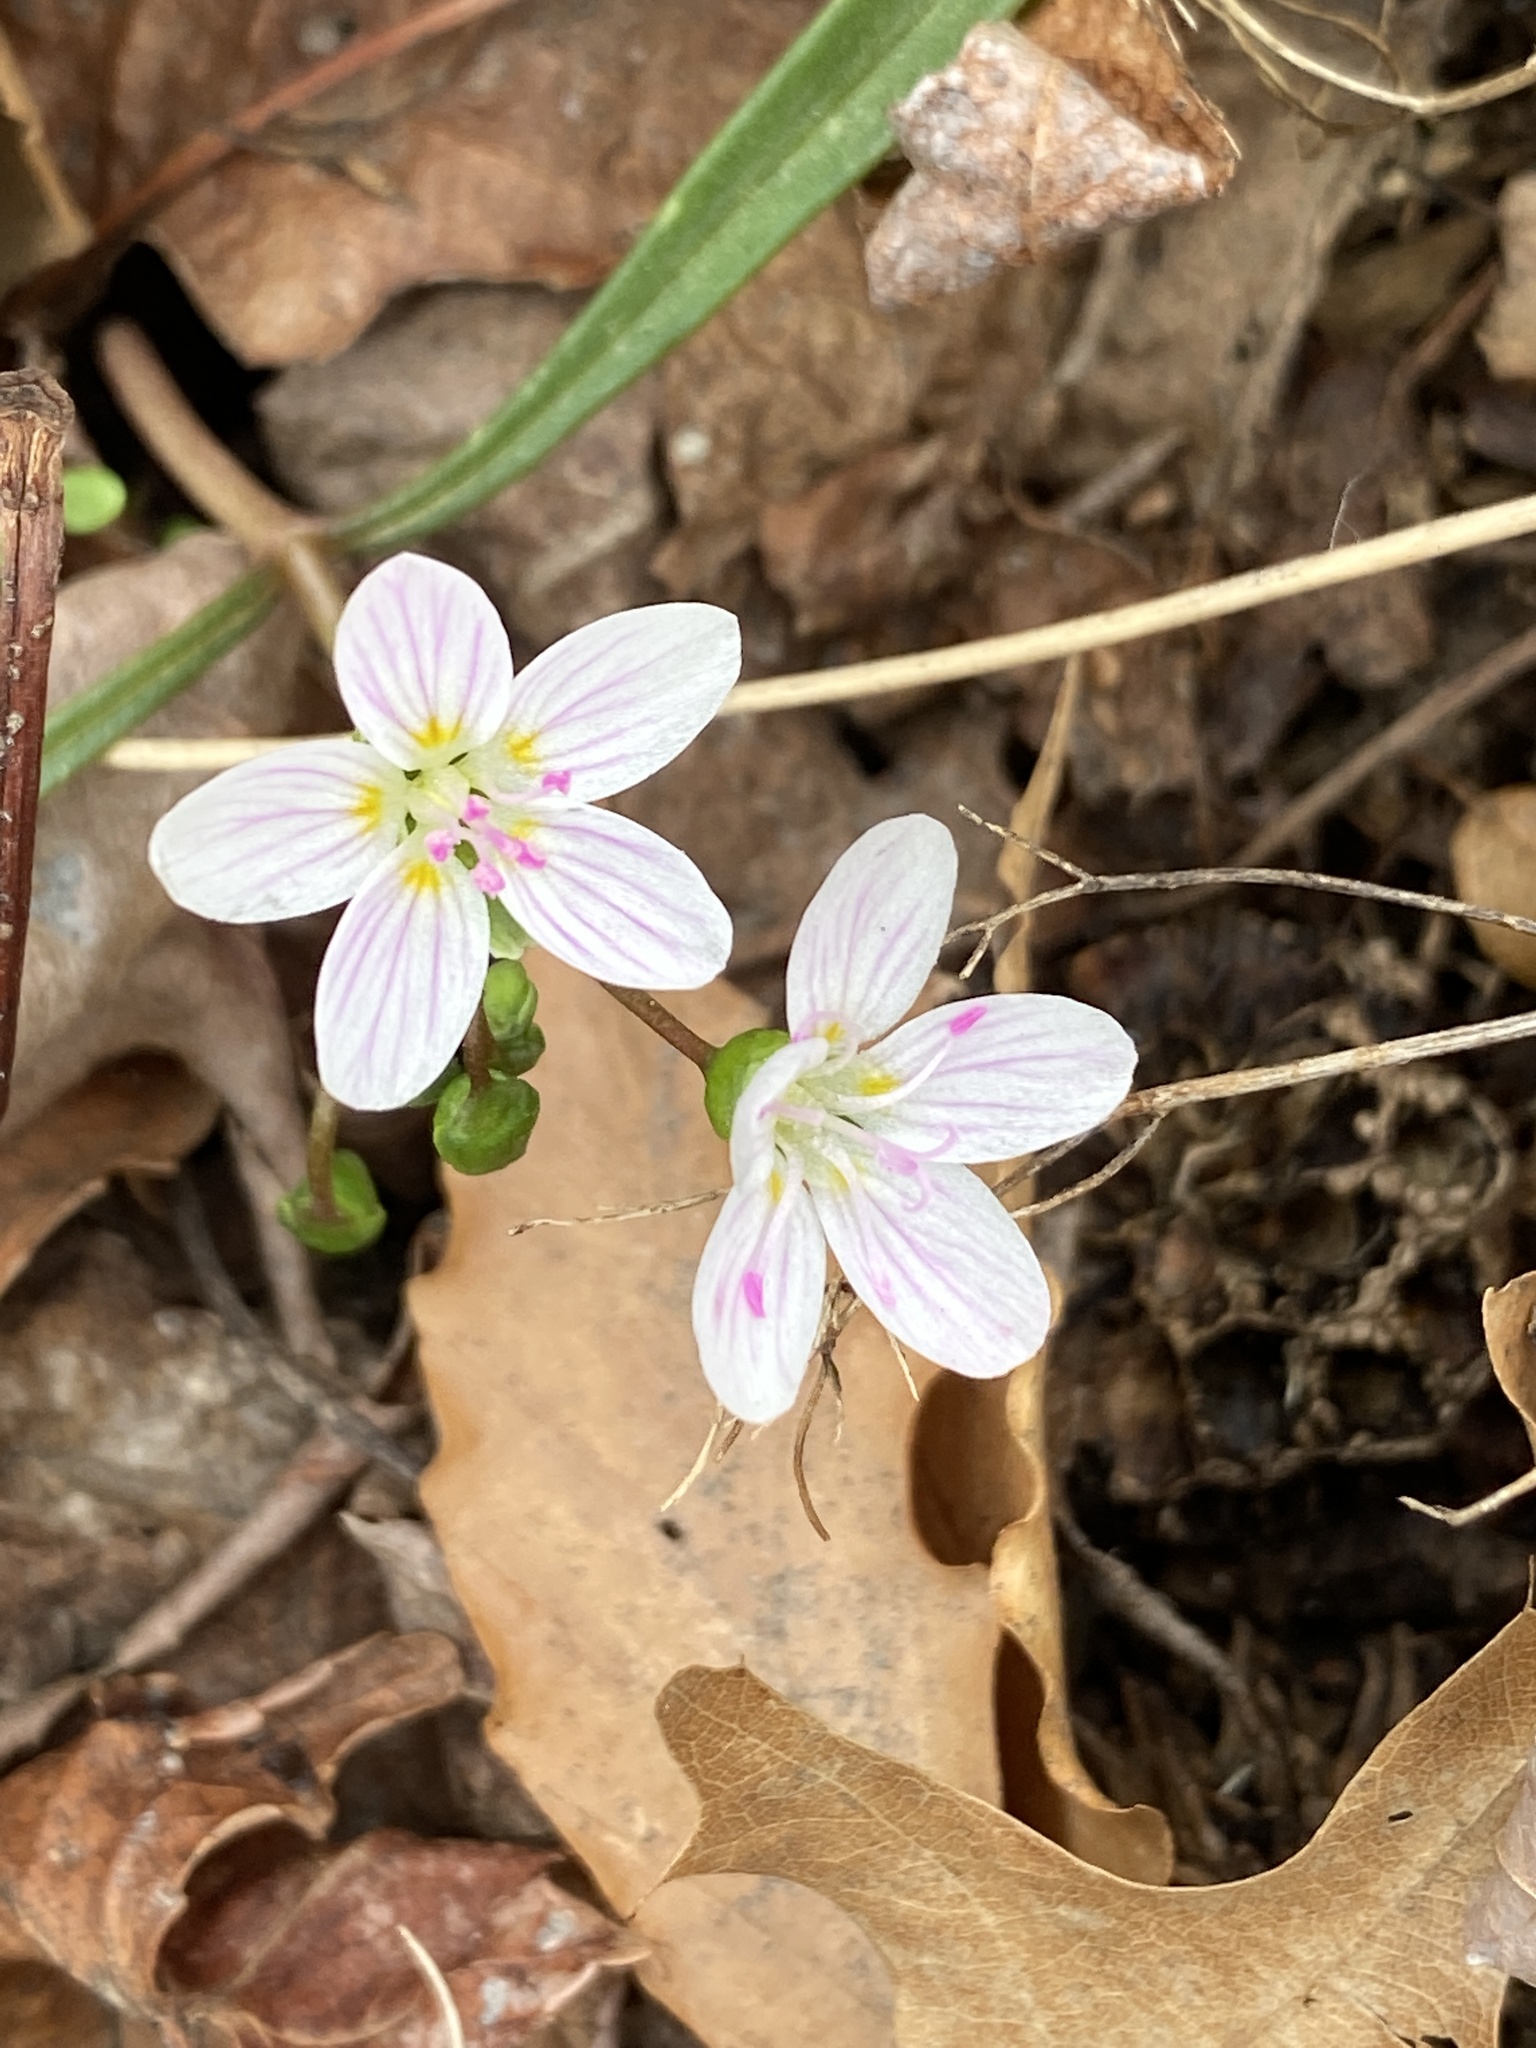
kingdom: Plantae
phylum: Tracheophyta
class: Magnoliopsida
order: Caryophyllales
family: Montiaceae
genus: Claytonia
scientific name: Claytonia virginica
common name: Virginia springbeauty
